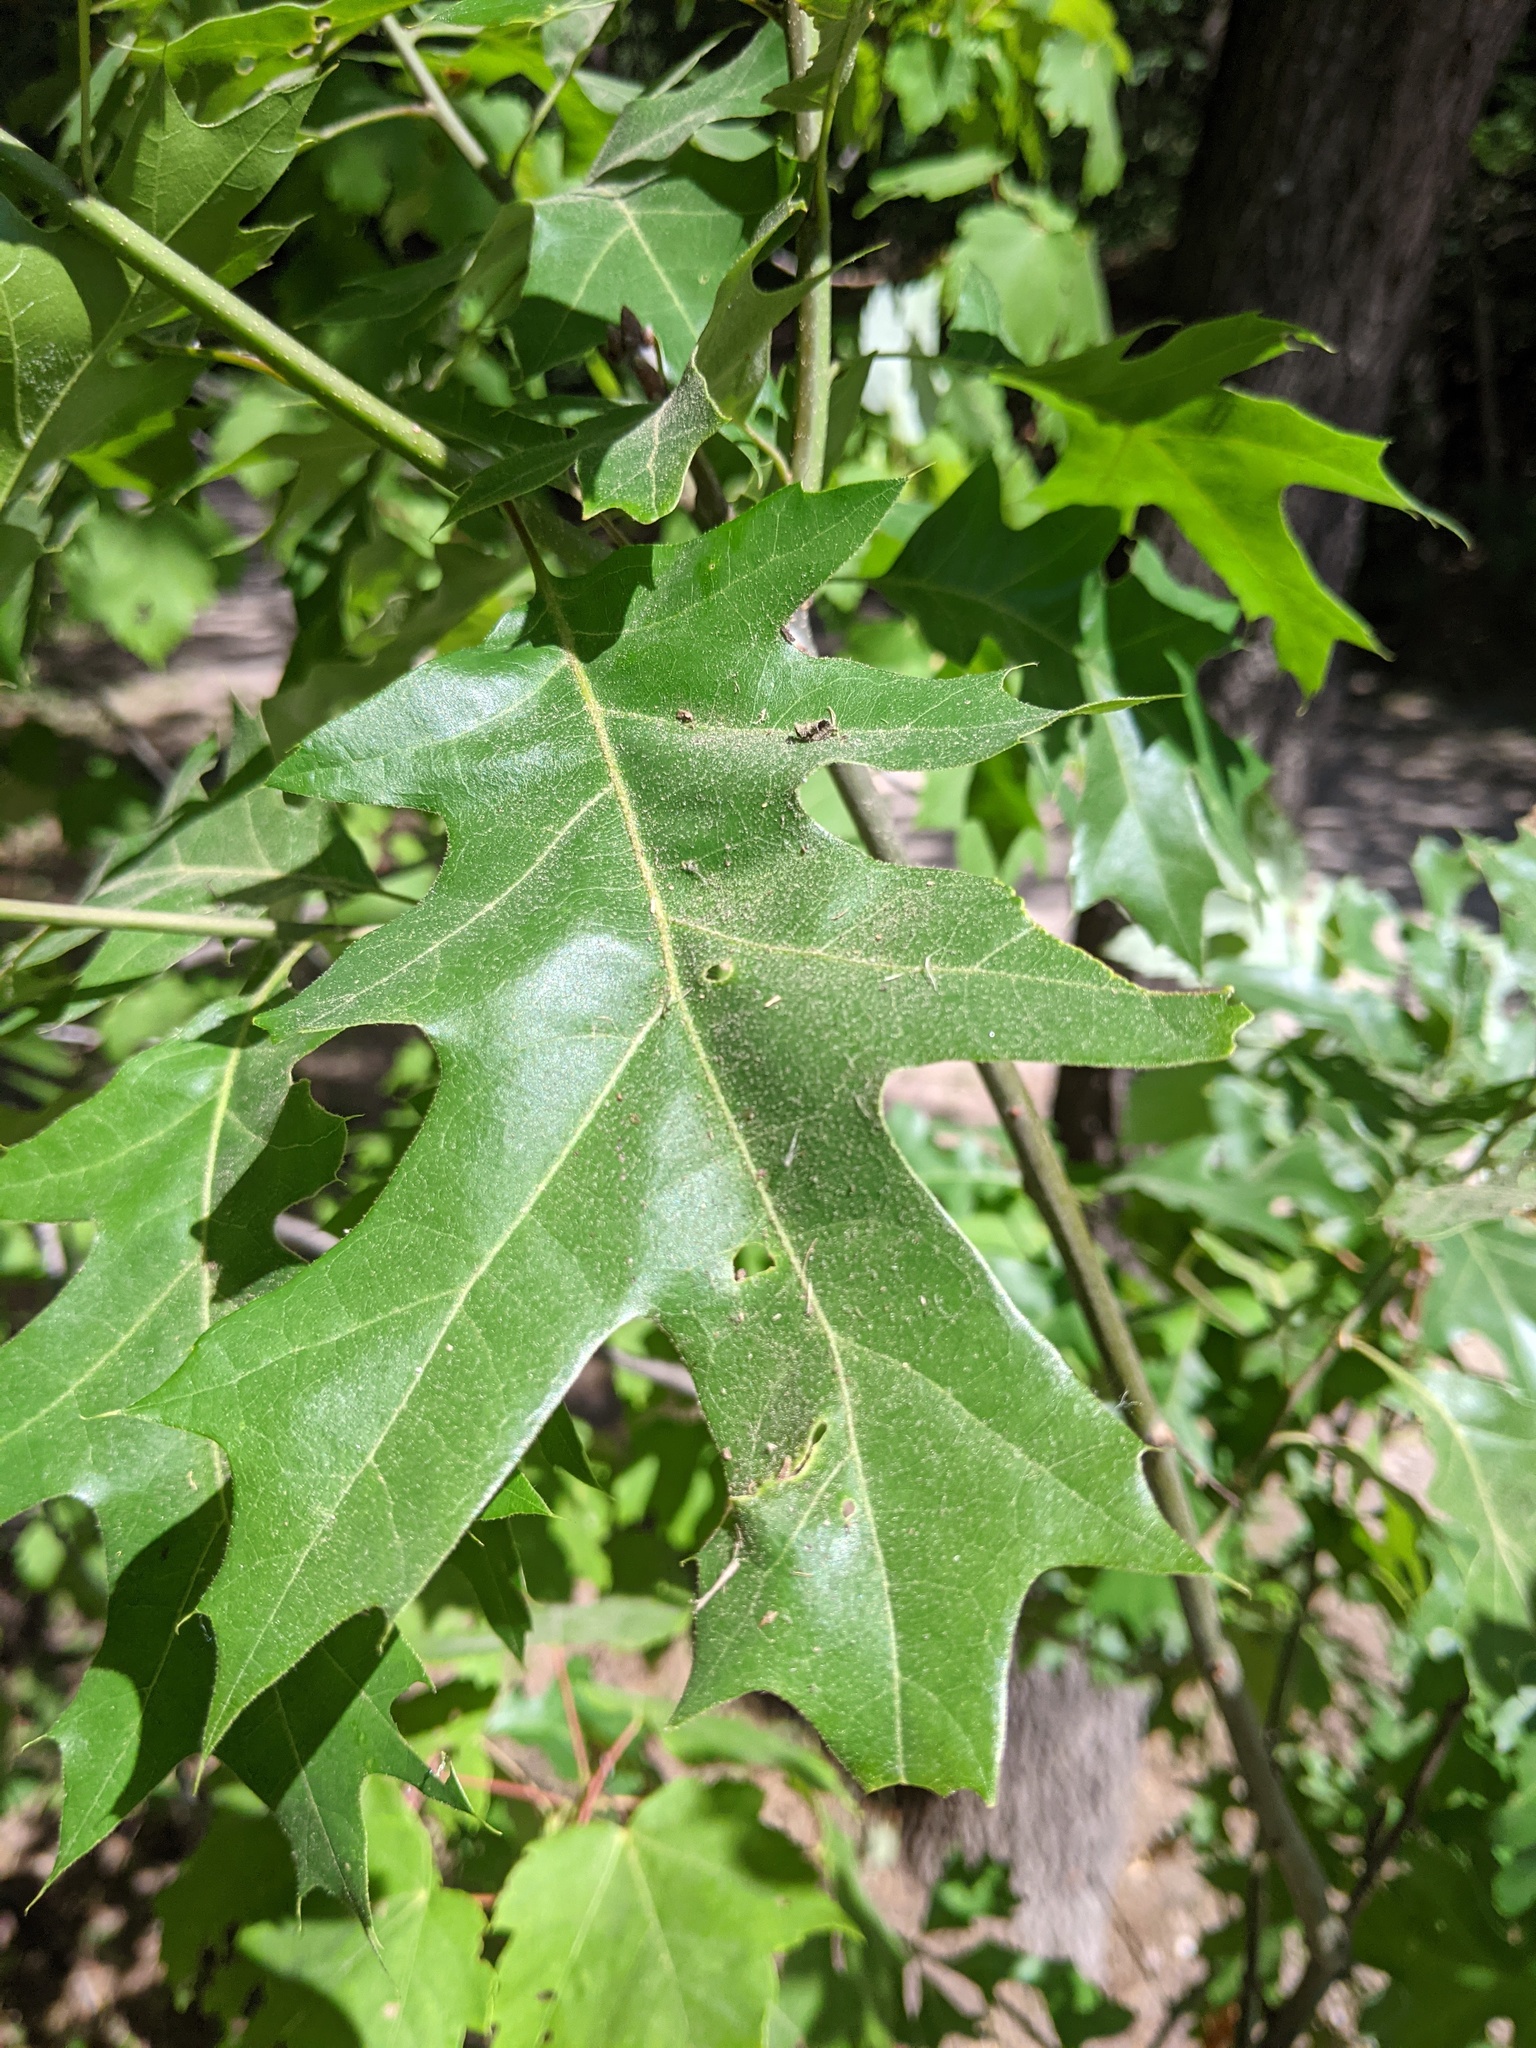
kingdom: Plantae
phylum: Tracheophyta
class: Magnoliopsida
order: Fagales
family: Fagaceae
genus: Quercus
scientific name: Quercus velutina
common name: Black oak
